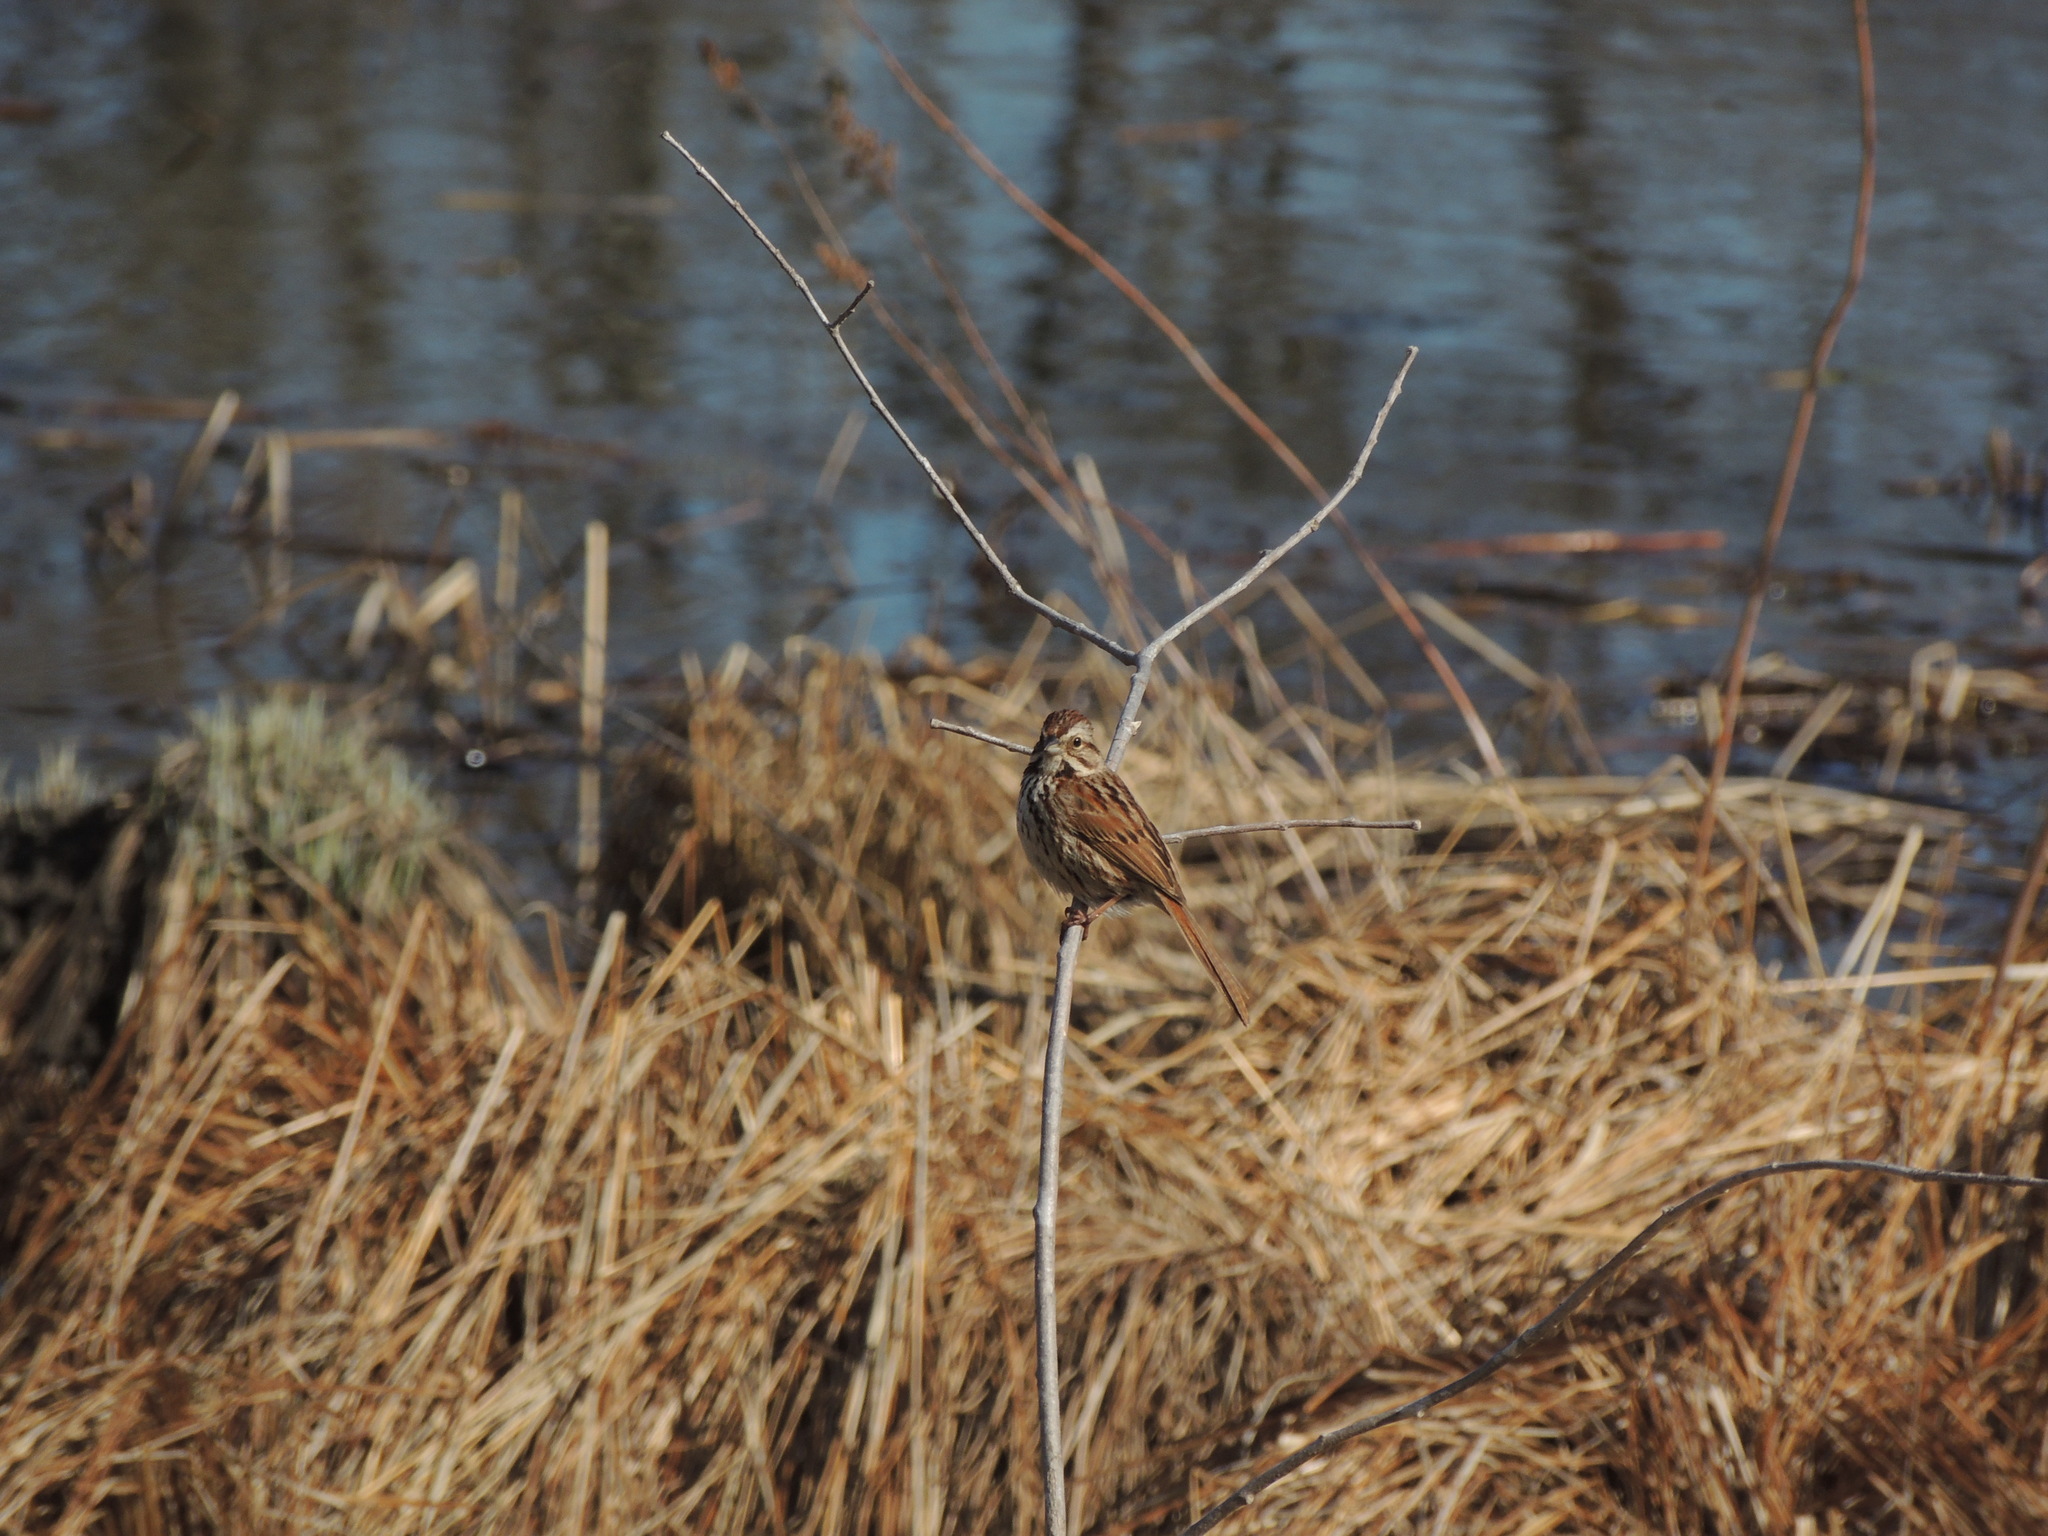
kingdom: Animalia
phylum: Chordata
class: Aves
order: Passeriformes
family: Passerellidae
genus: Melospiza
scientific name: Melospiza melodia
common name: Song sparrow
